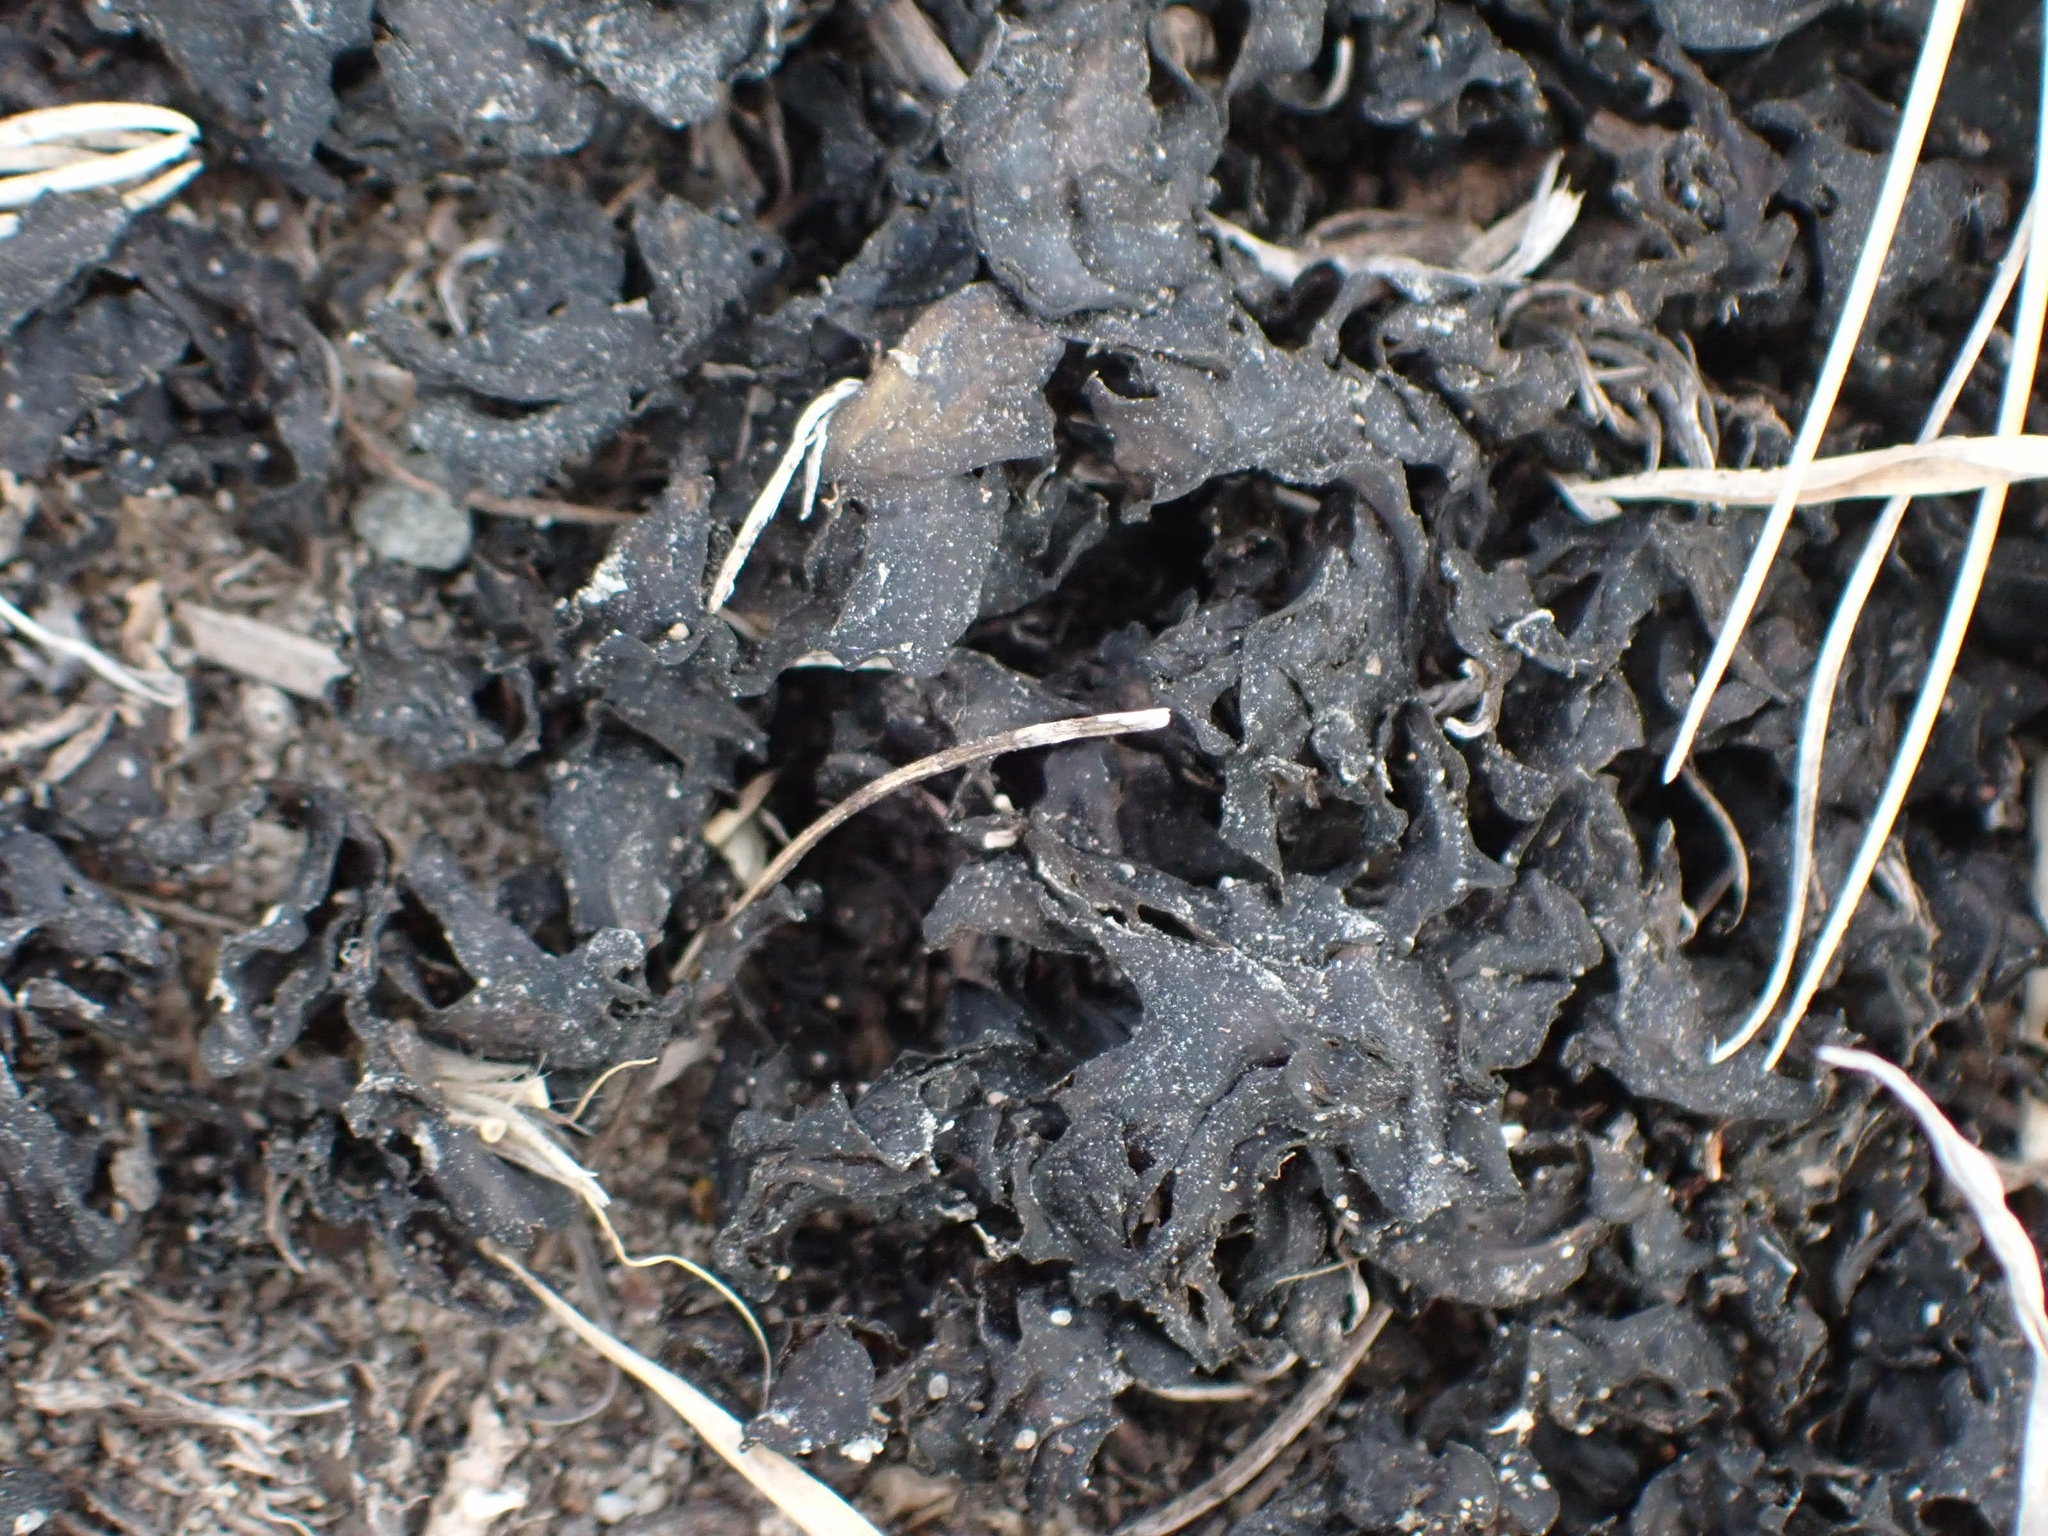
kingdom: Bacteria
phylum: Cyanobacteria
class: Cyanobacteriia
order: Cyanobacteriales
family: Nostocaceae
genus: Nostoc
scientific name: Nostoc commune
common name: Star jelly
